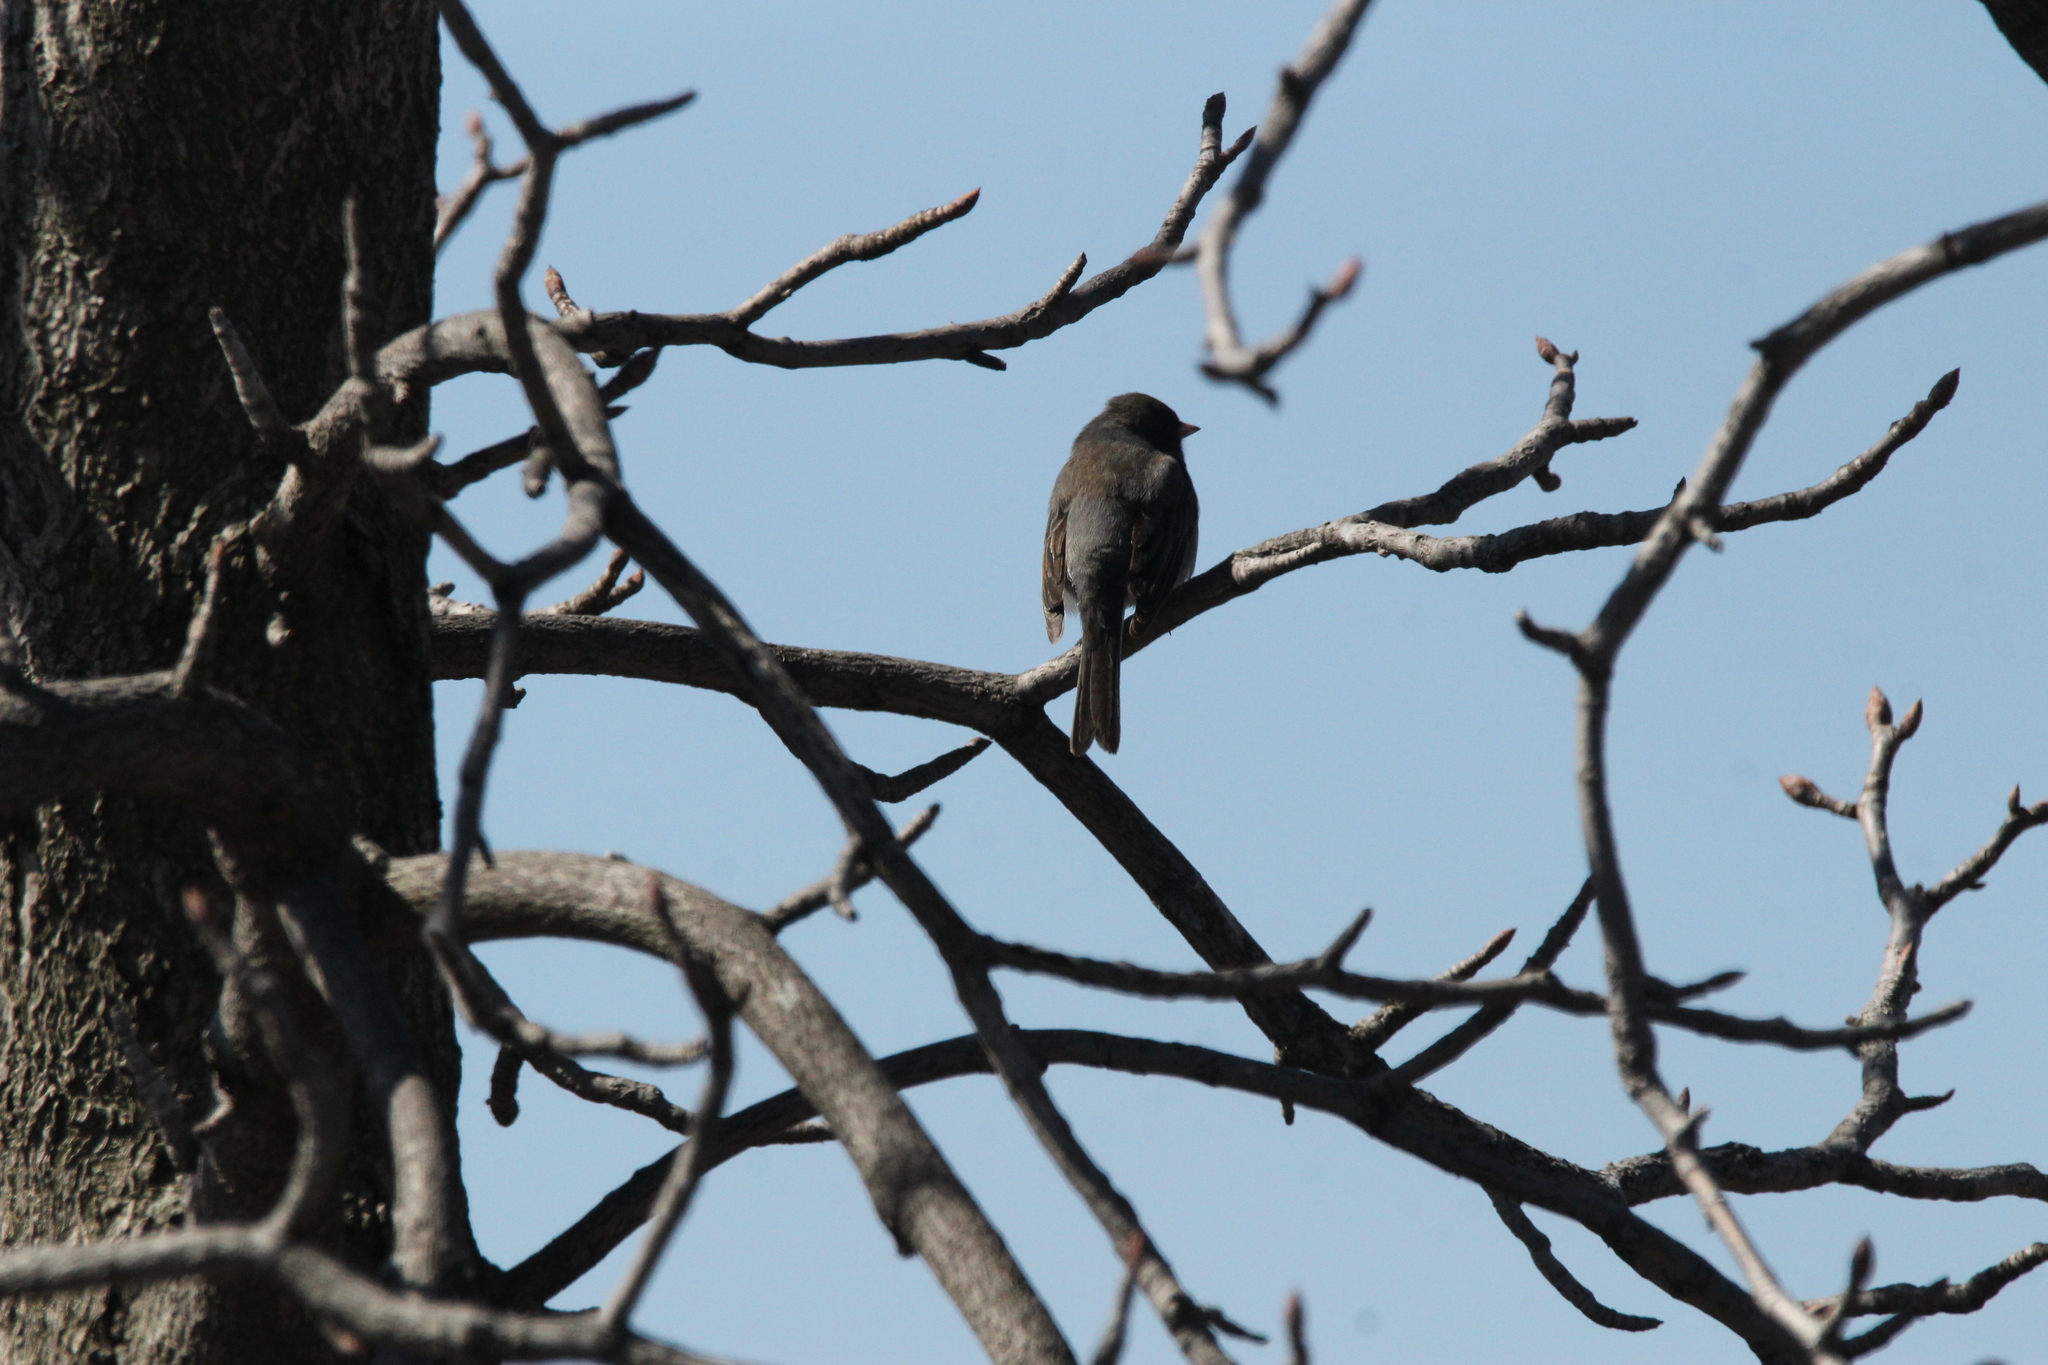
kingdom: Animalia
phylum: Chordata
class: Aves
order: Passeriformes
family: Passerellidae
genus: Junco
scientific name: Junco hyemalis
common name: Dark-eyed junco
